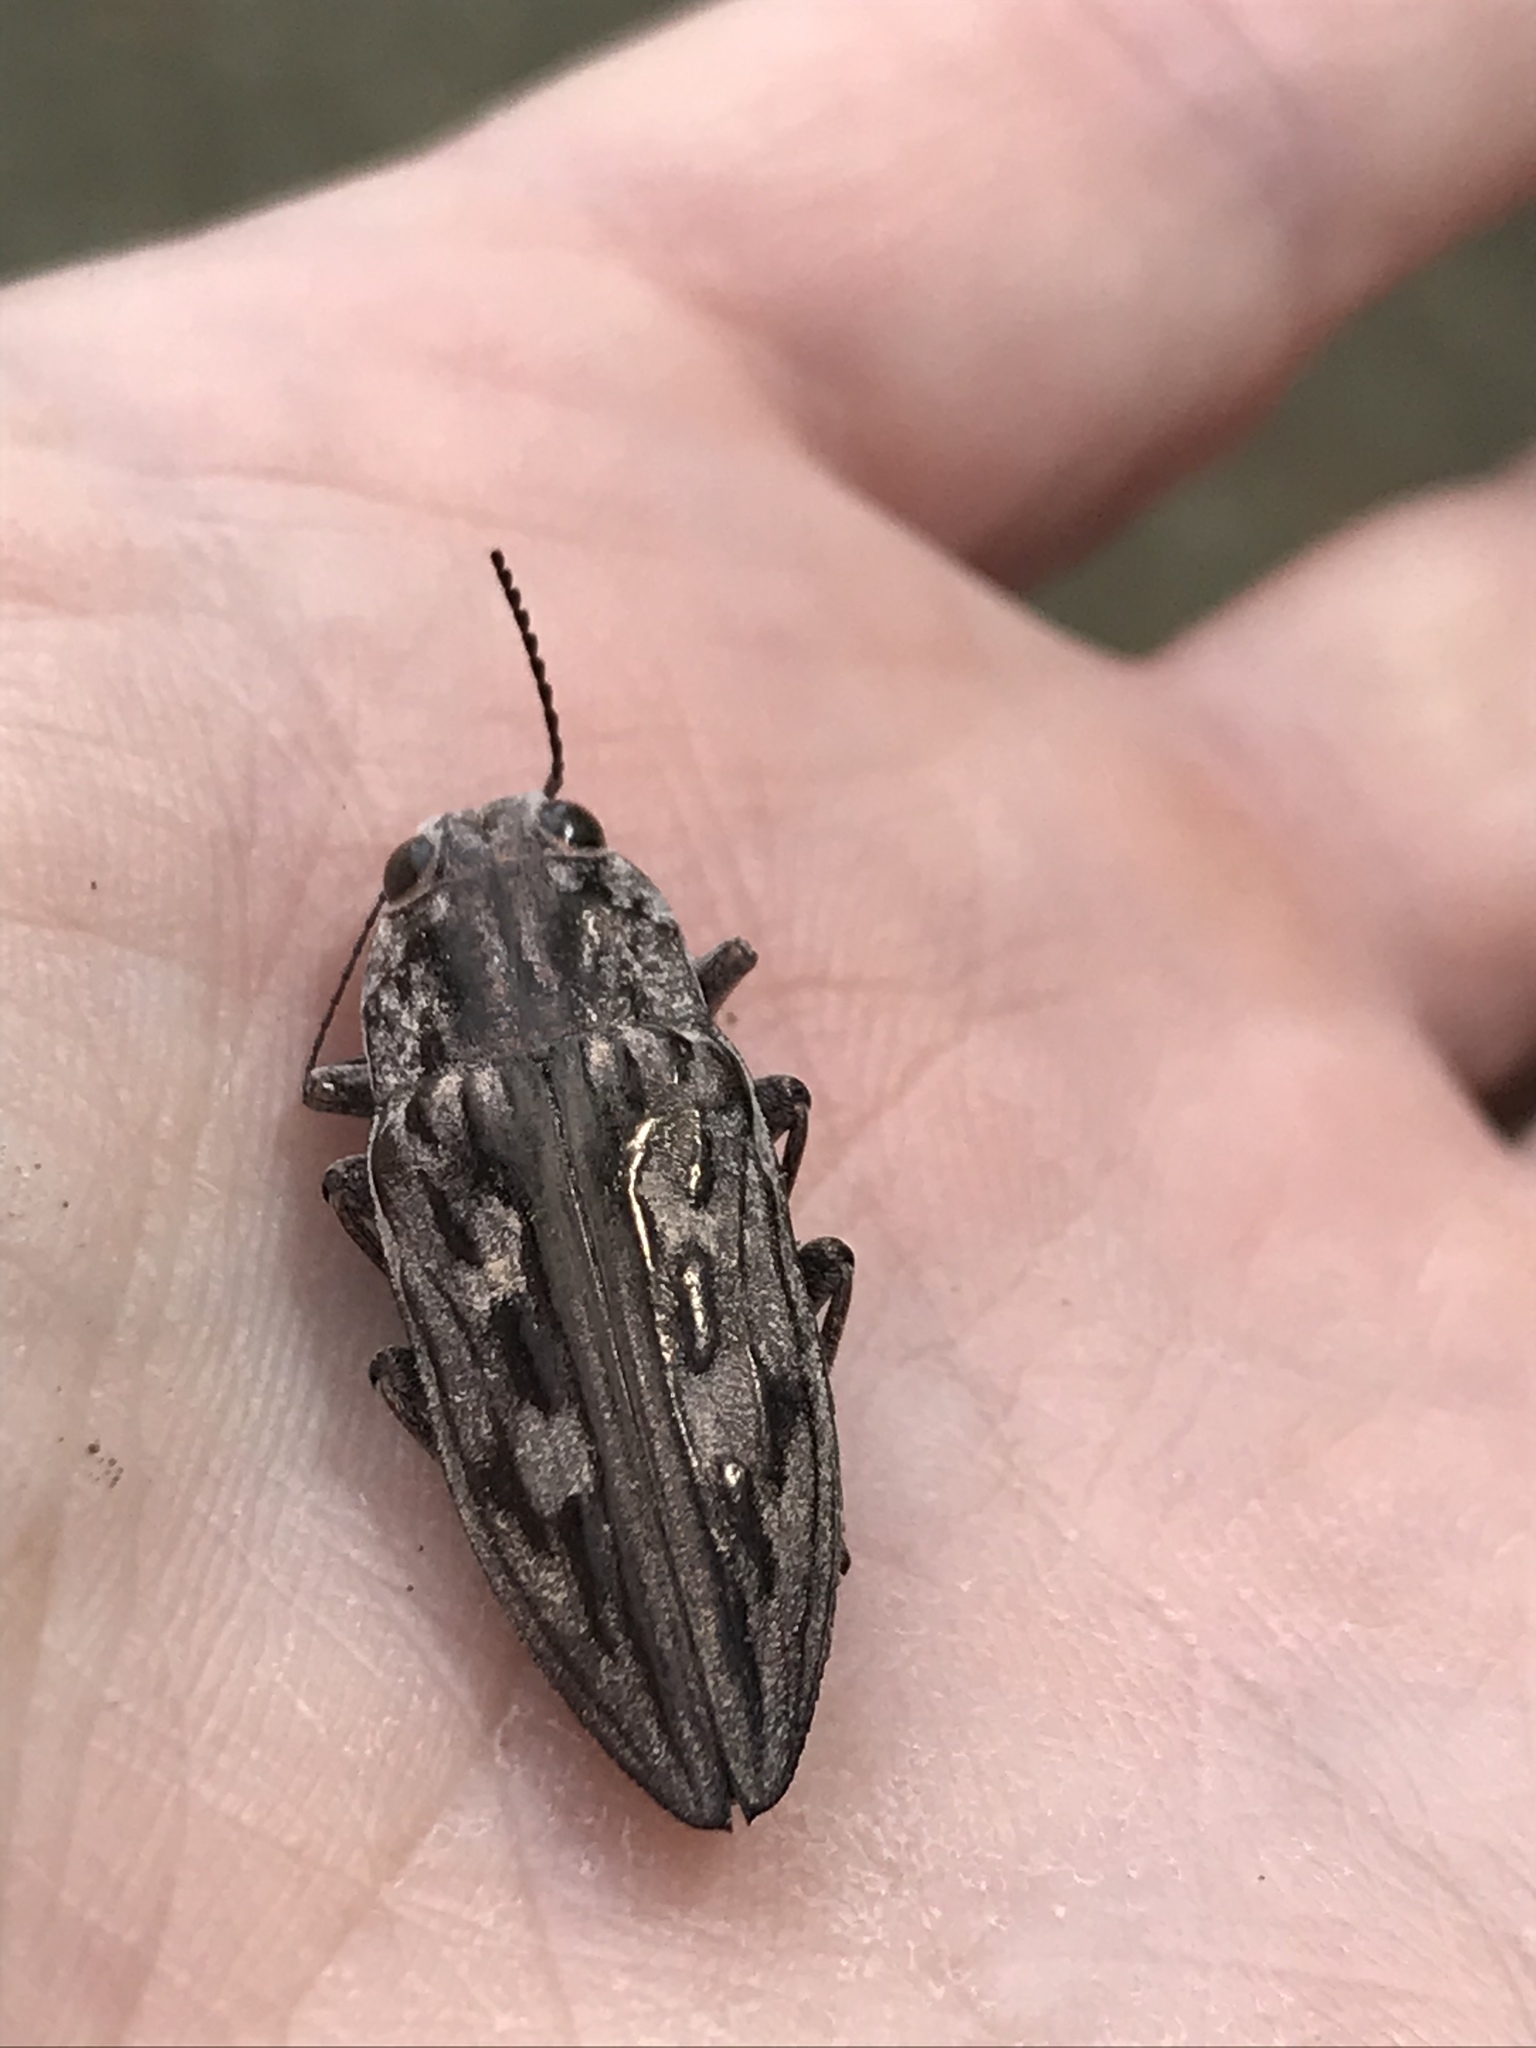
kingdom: Animalia
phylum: Arthropoda
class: Insecta
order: Coleoptera
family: Buprestidae
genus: Chalcophora
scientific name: Chalcophora virginiensis
